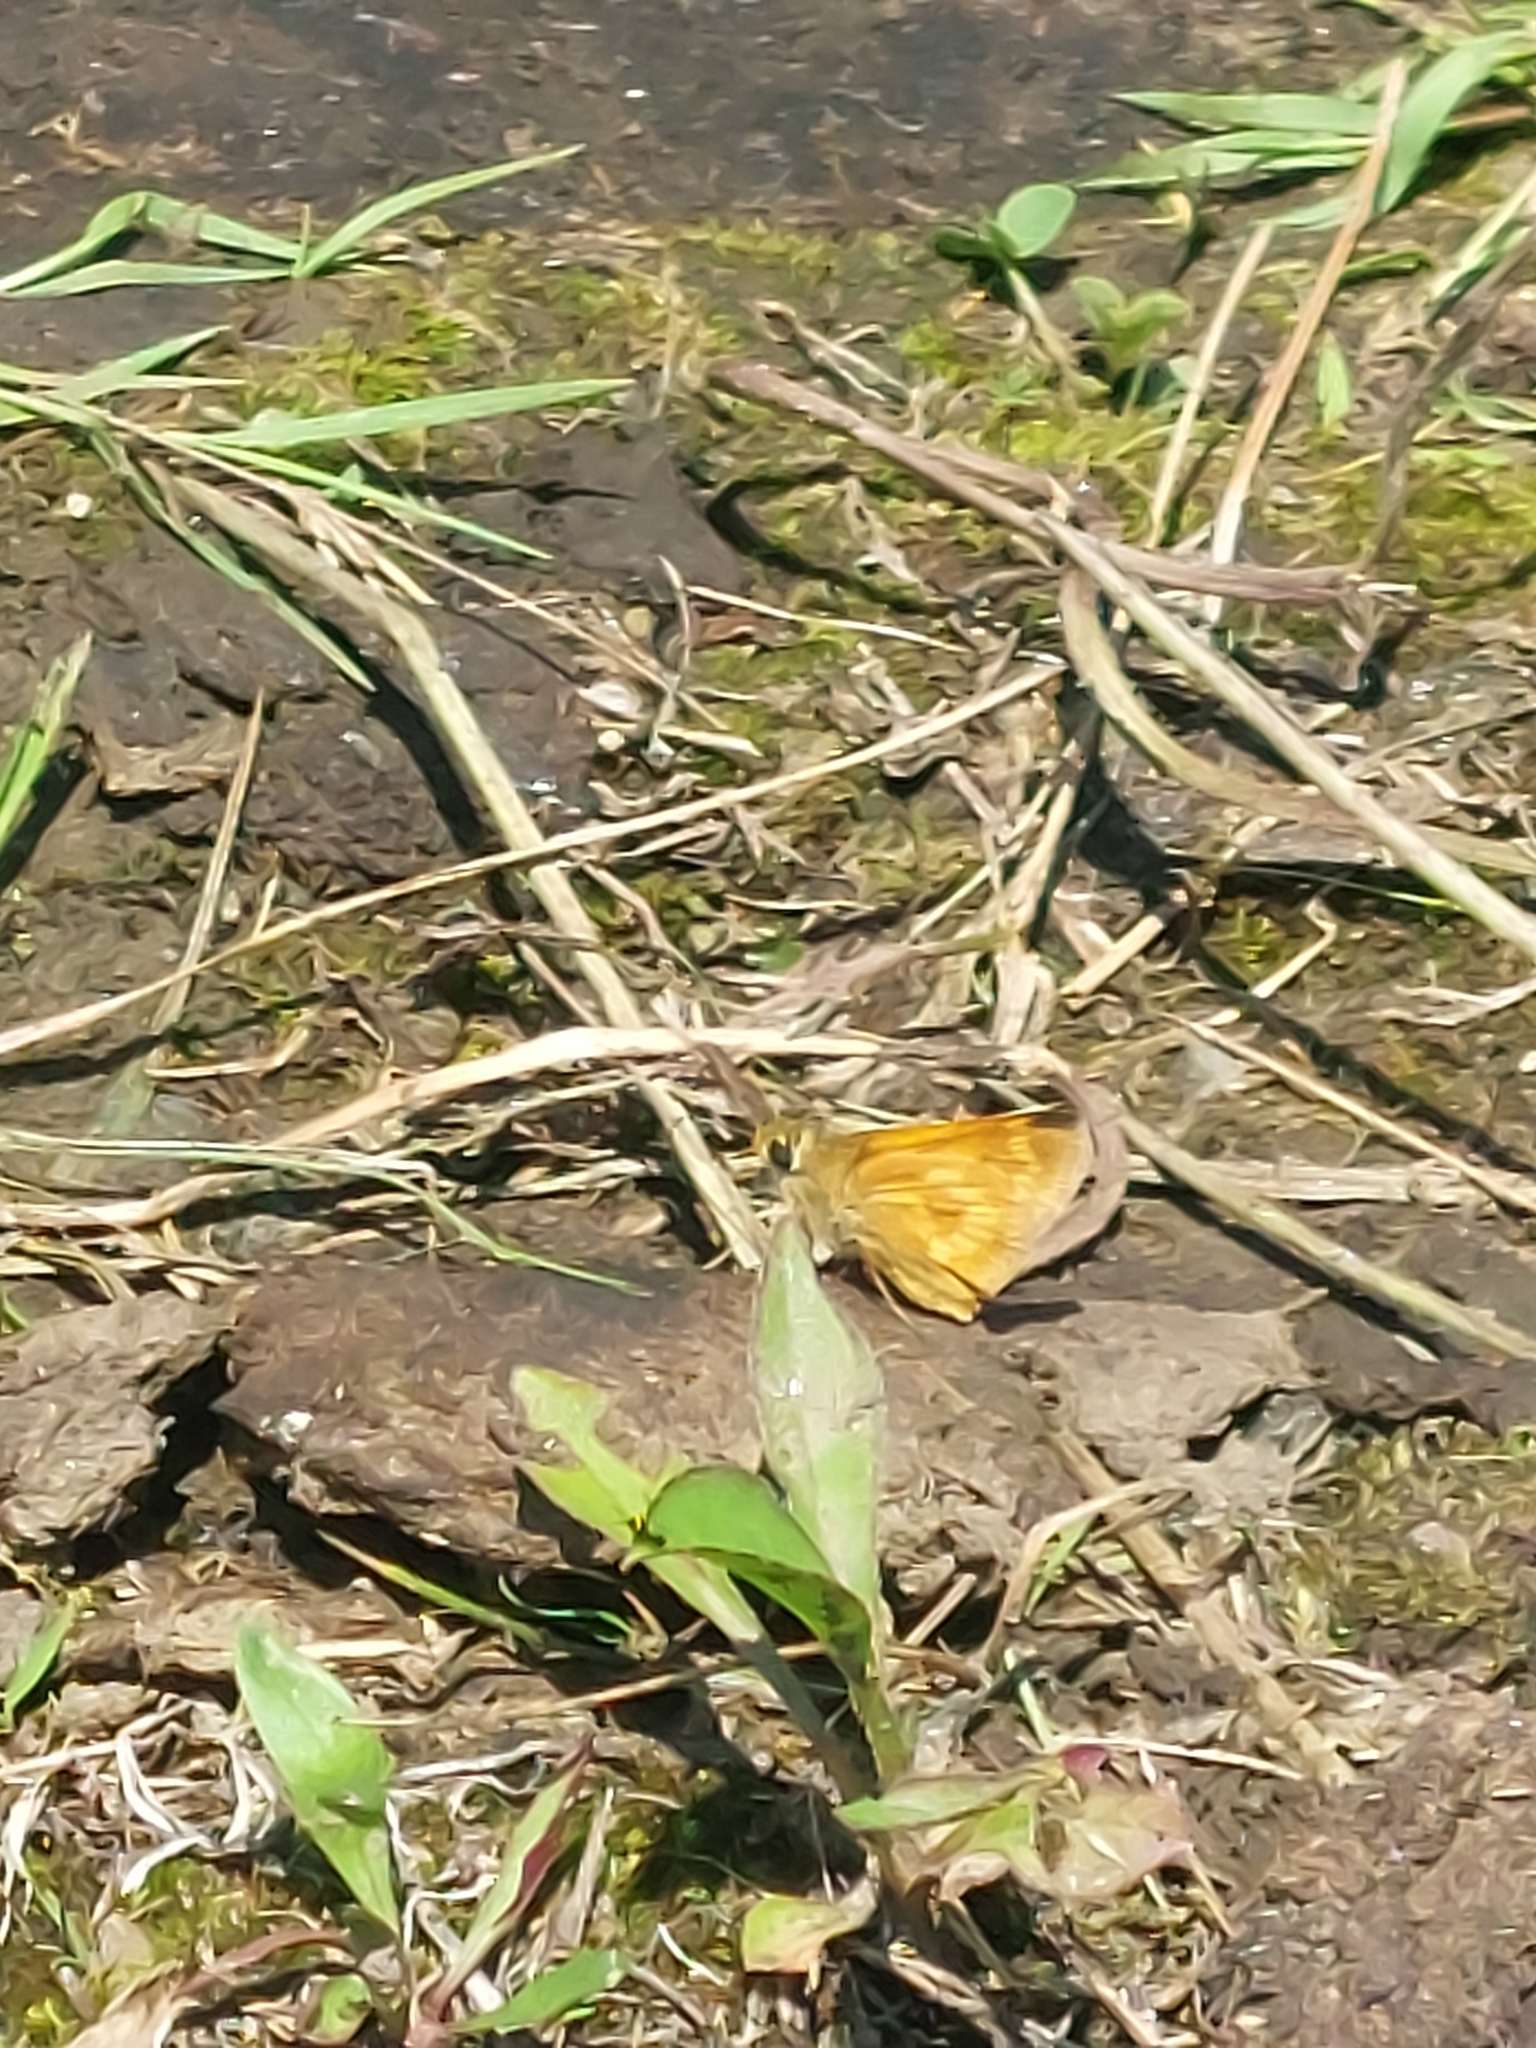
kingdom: Animalia
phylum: Arthropoda
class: Insecta
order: Lepidoptera
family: Hesperiidae
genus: Polites
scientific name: Polites mystic
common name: Long dash
